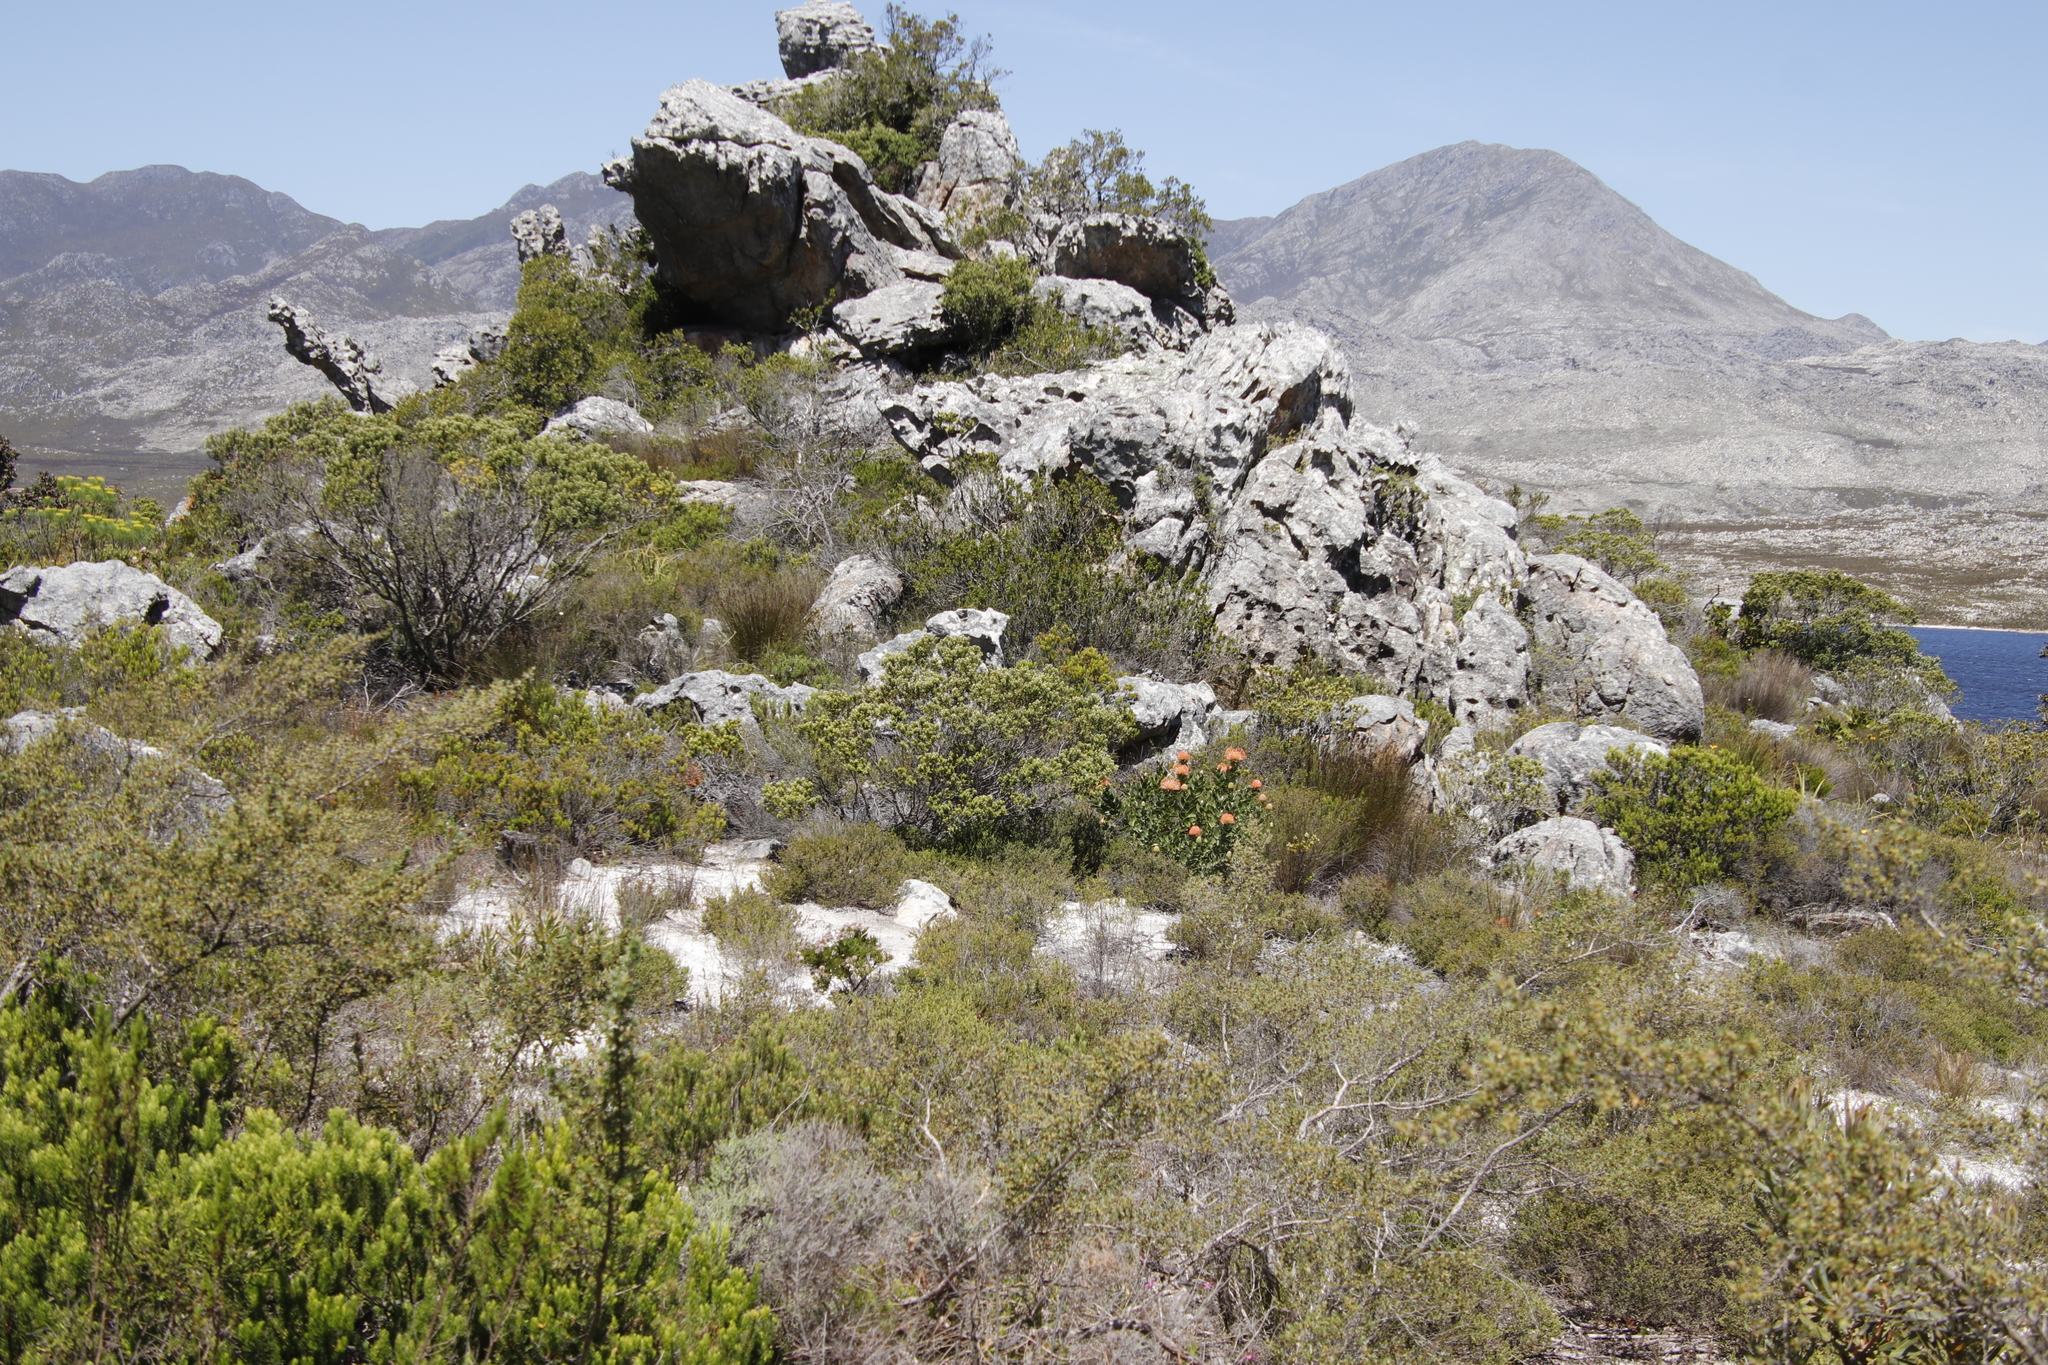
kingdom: Plantae
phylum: Tracheophyta
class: Magnoliopsida
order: Proteales
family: Proteaceae
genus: Leucospermum
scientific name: Leucospermum cordifolium
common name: Red pincushion-protea
